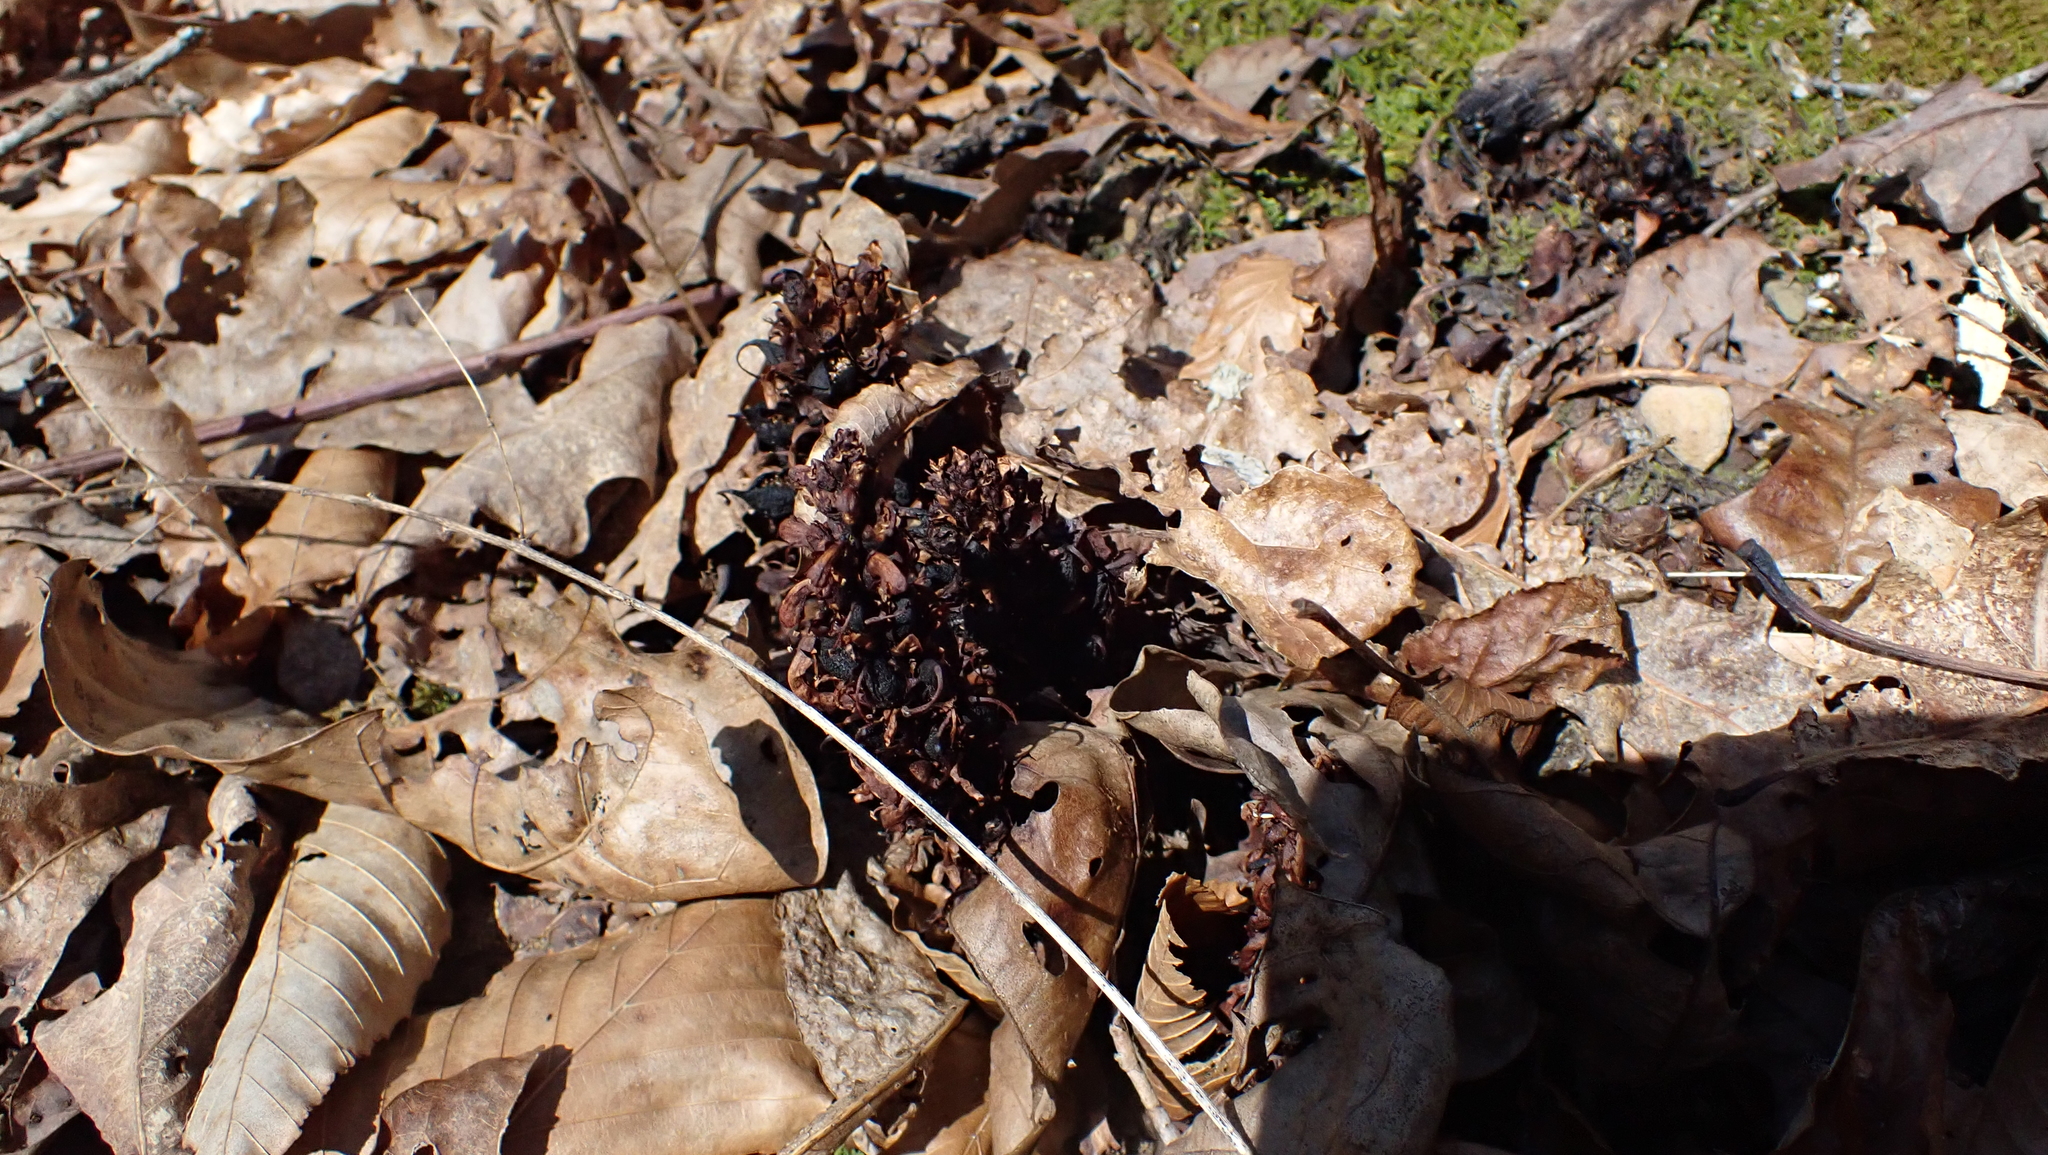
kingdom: Plantae
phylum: Tracheophyta
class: Magnoliopsida
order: Lamiales
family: Orobanchaceae
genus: Conopholis
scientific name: Conopholis americana
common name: American cancer-root
